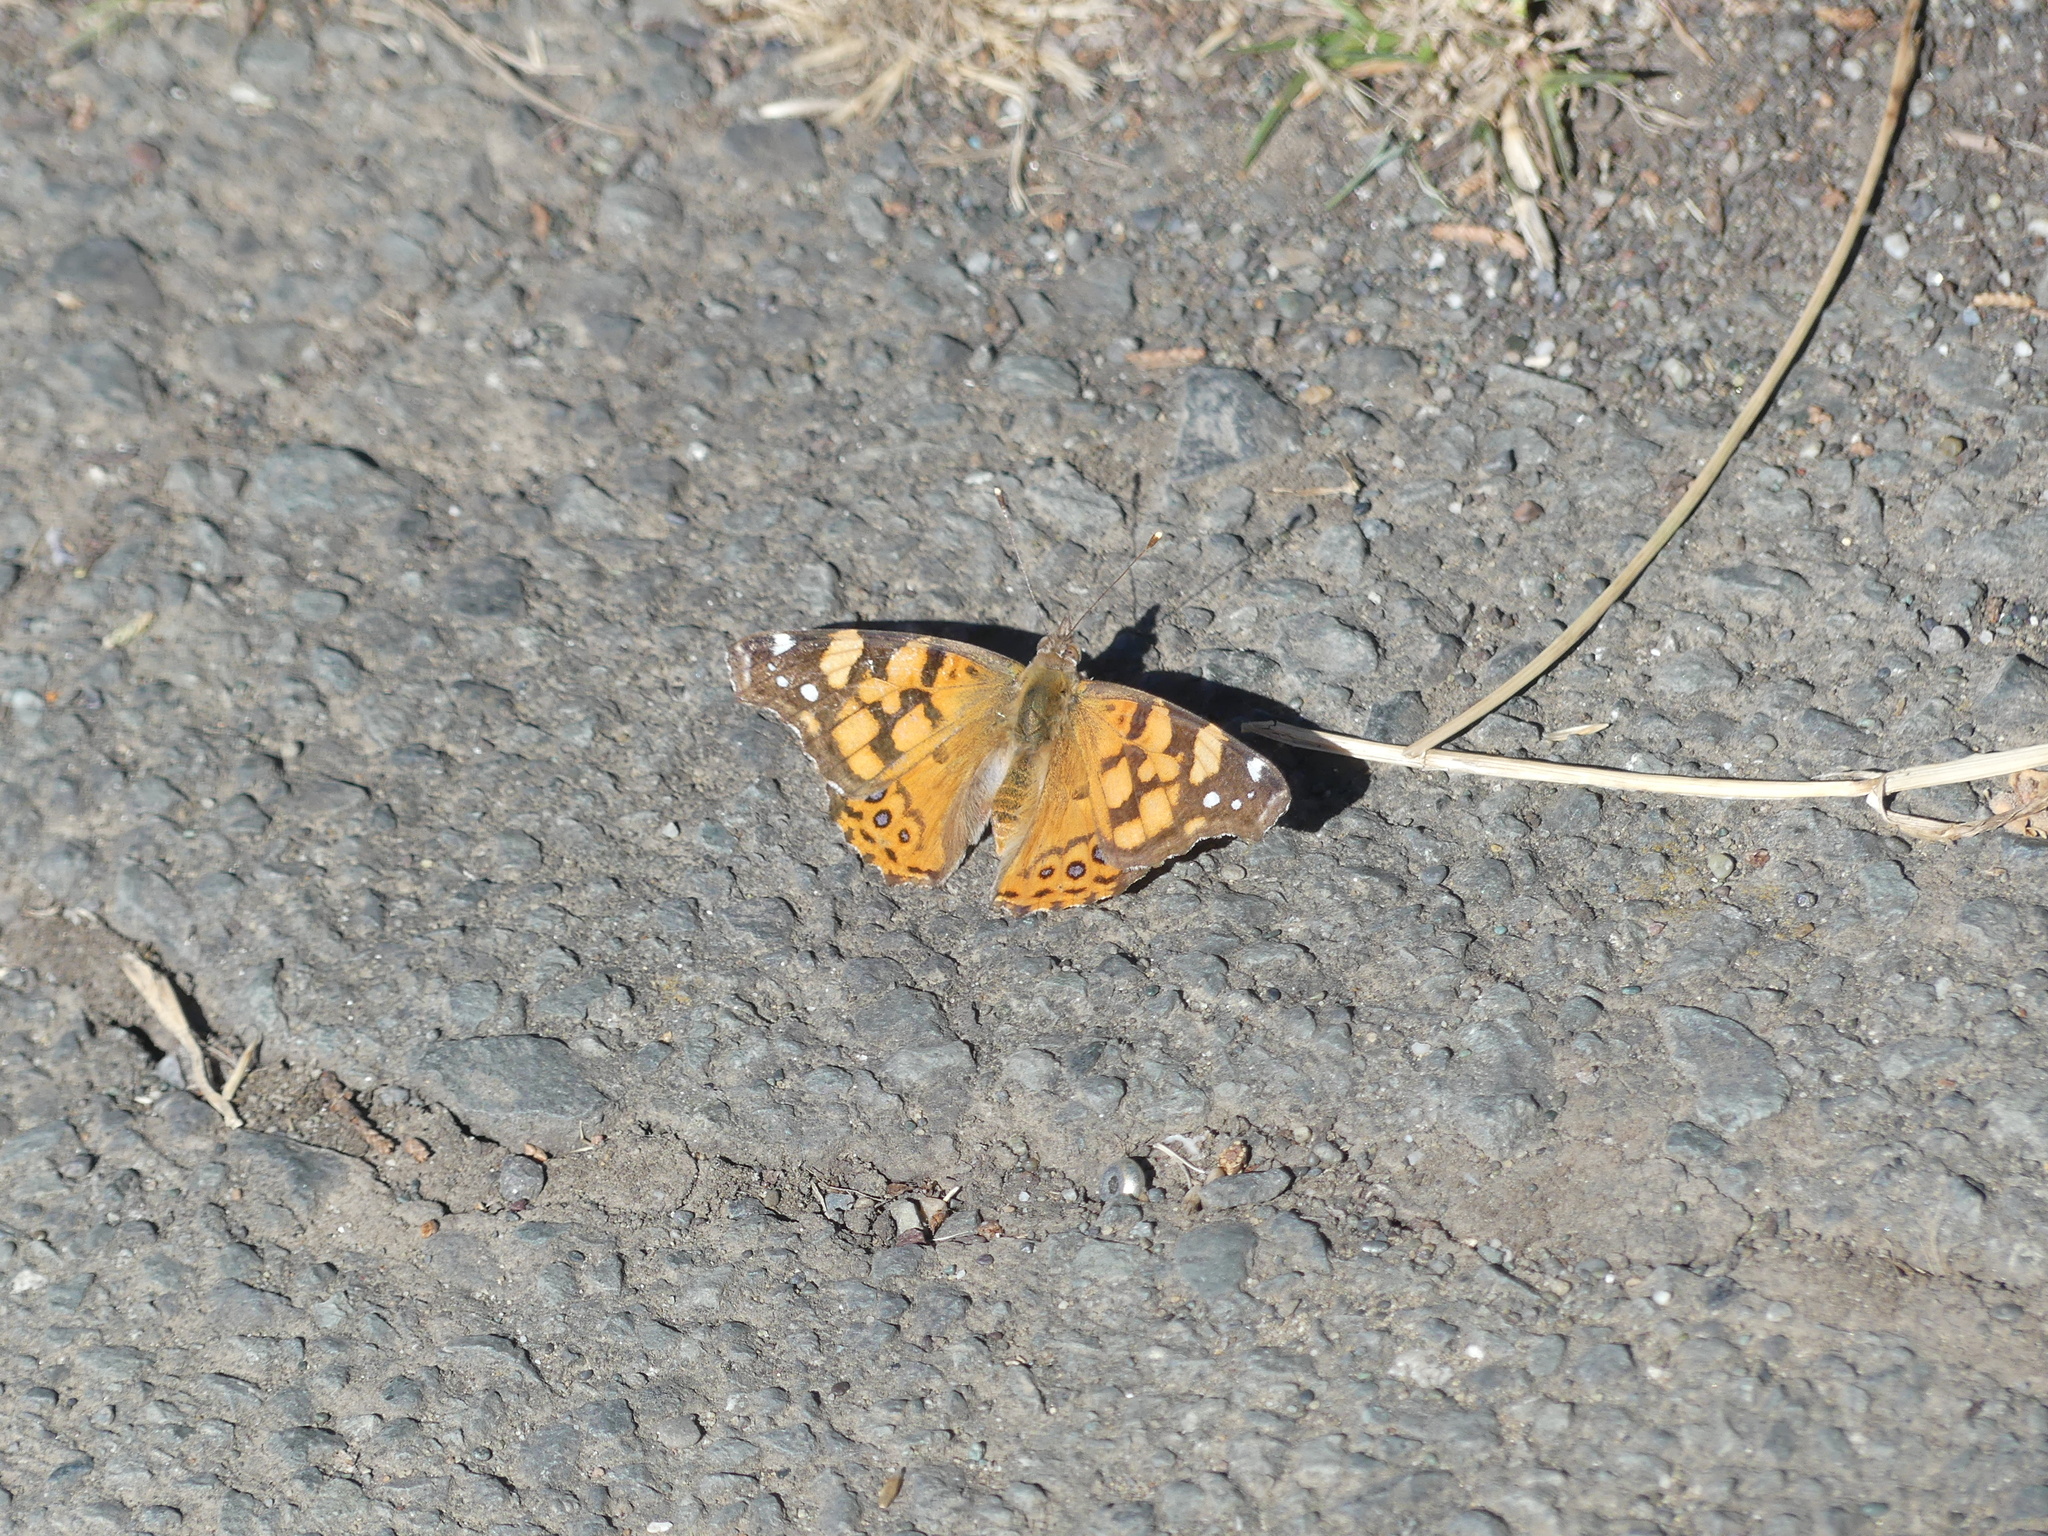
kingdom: Animalia
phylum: Arthropoda
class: Insecta
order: Lepidoptera
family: Nymphalidae
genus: Vanessa
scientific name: Vanessa annabella
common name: West coast lady
